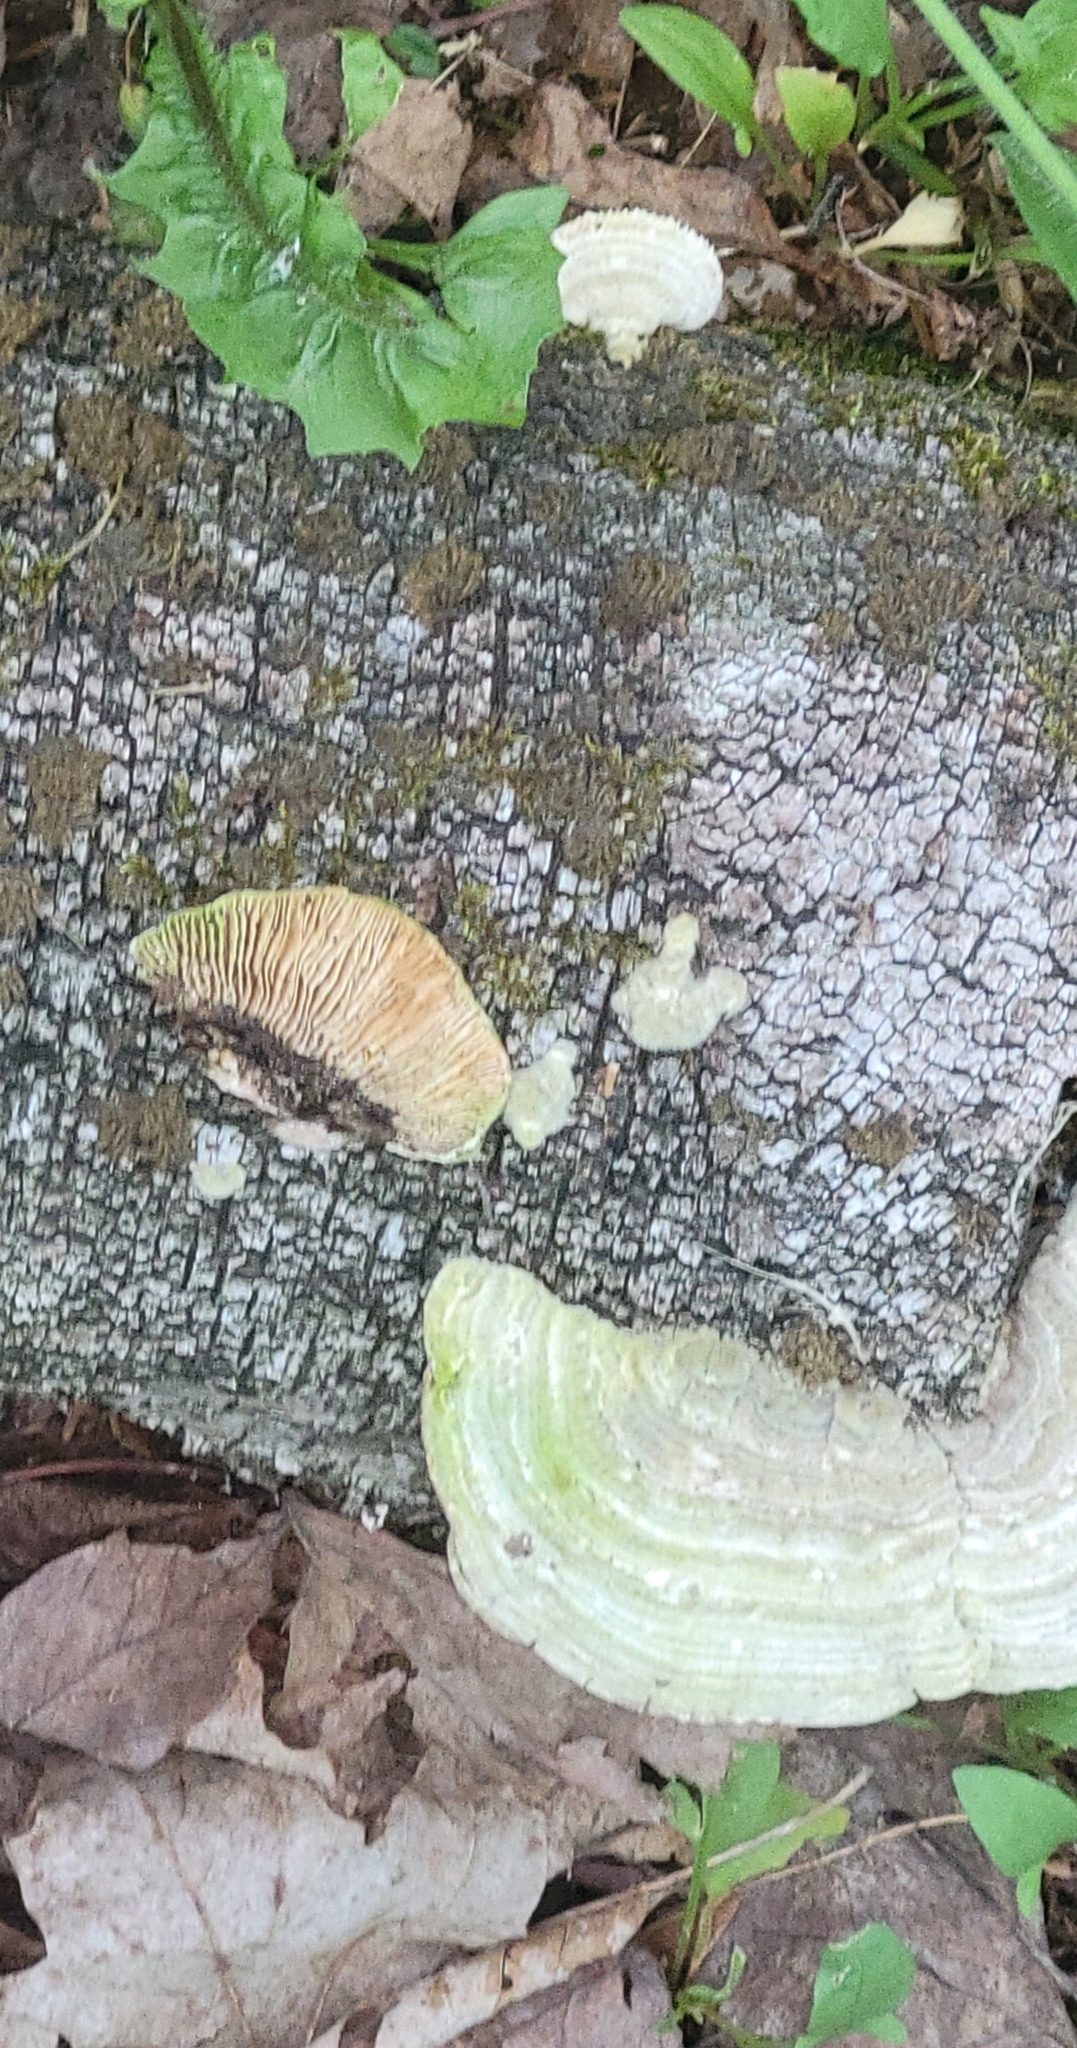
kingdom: Fungi
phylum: Basidiomycota
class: Agaricomycetes
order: Polyporales
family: Polyporaceae
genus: Lenzites
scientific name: Lenzites betulinus
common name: Birch mazegill
